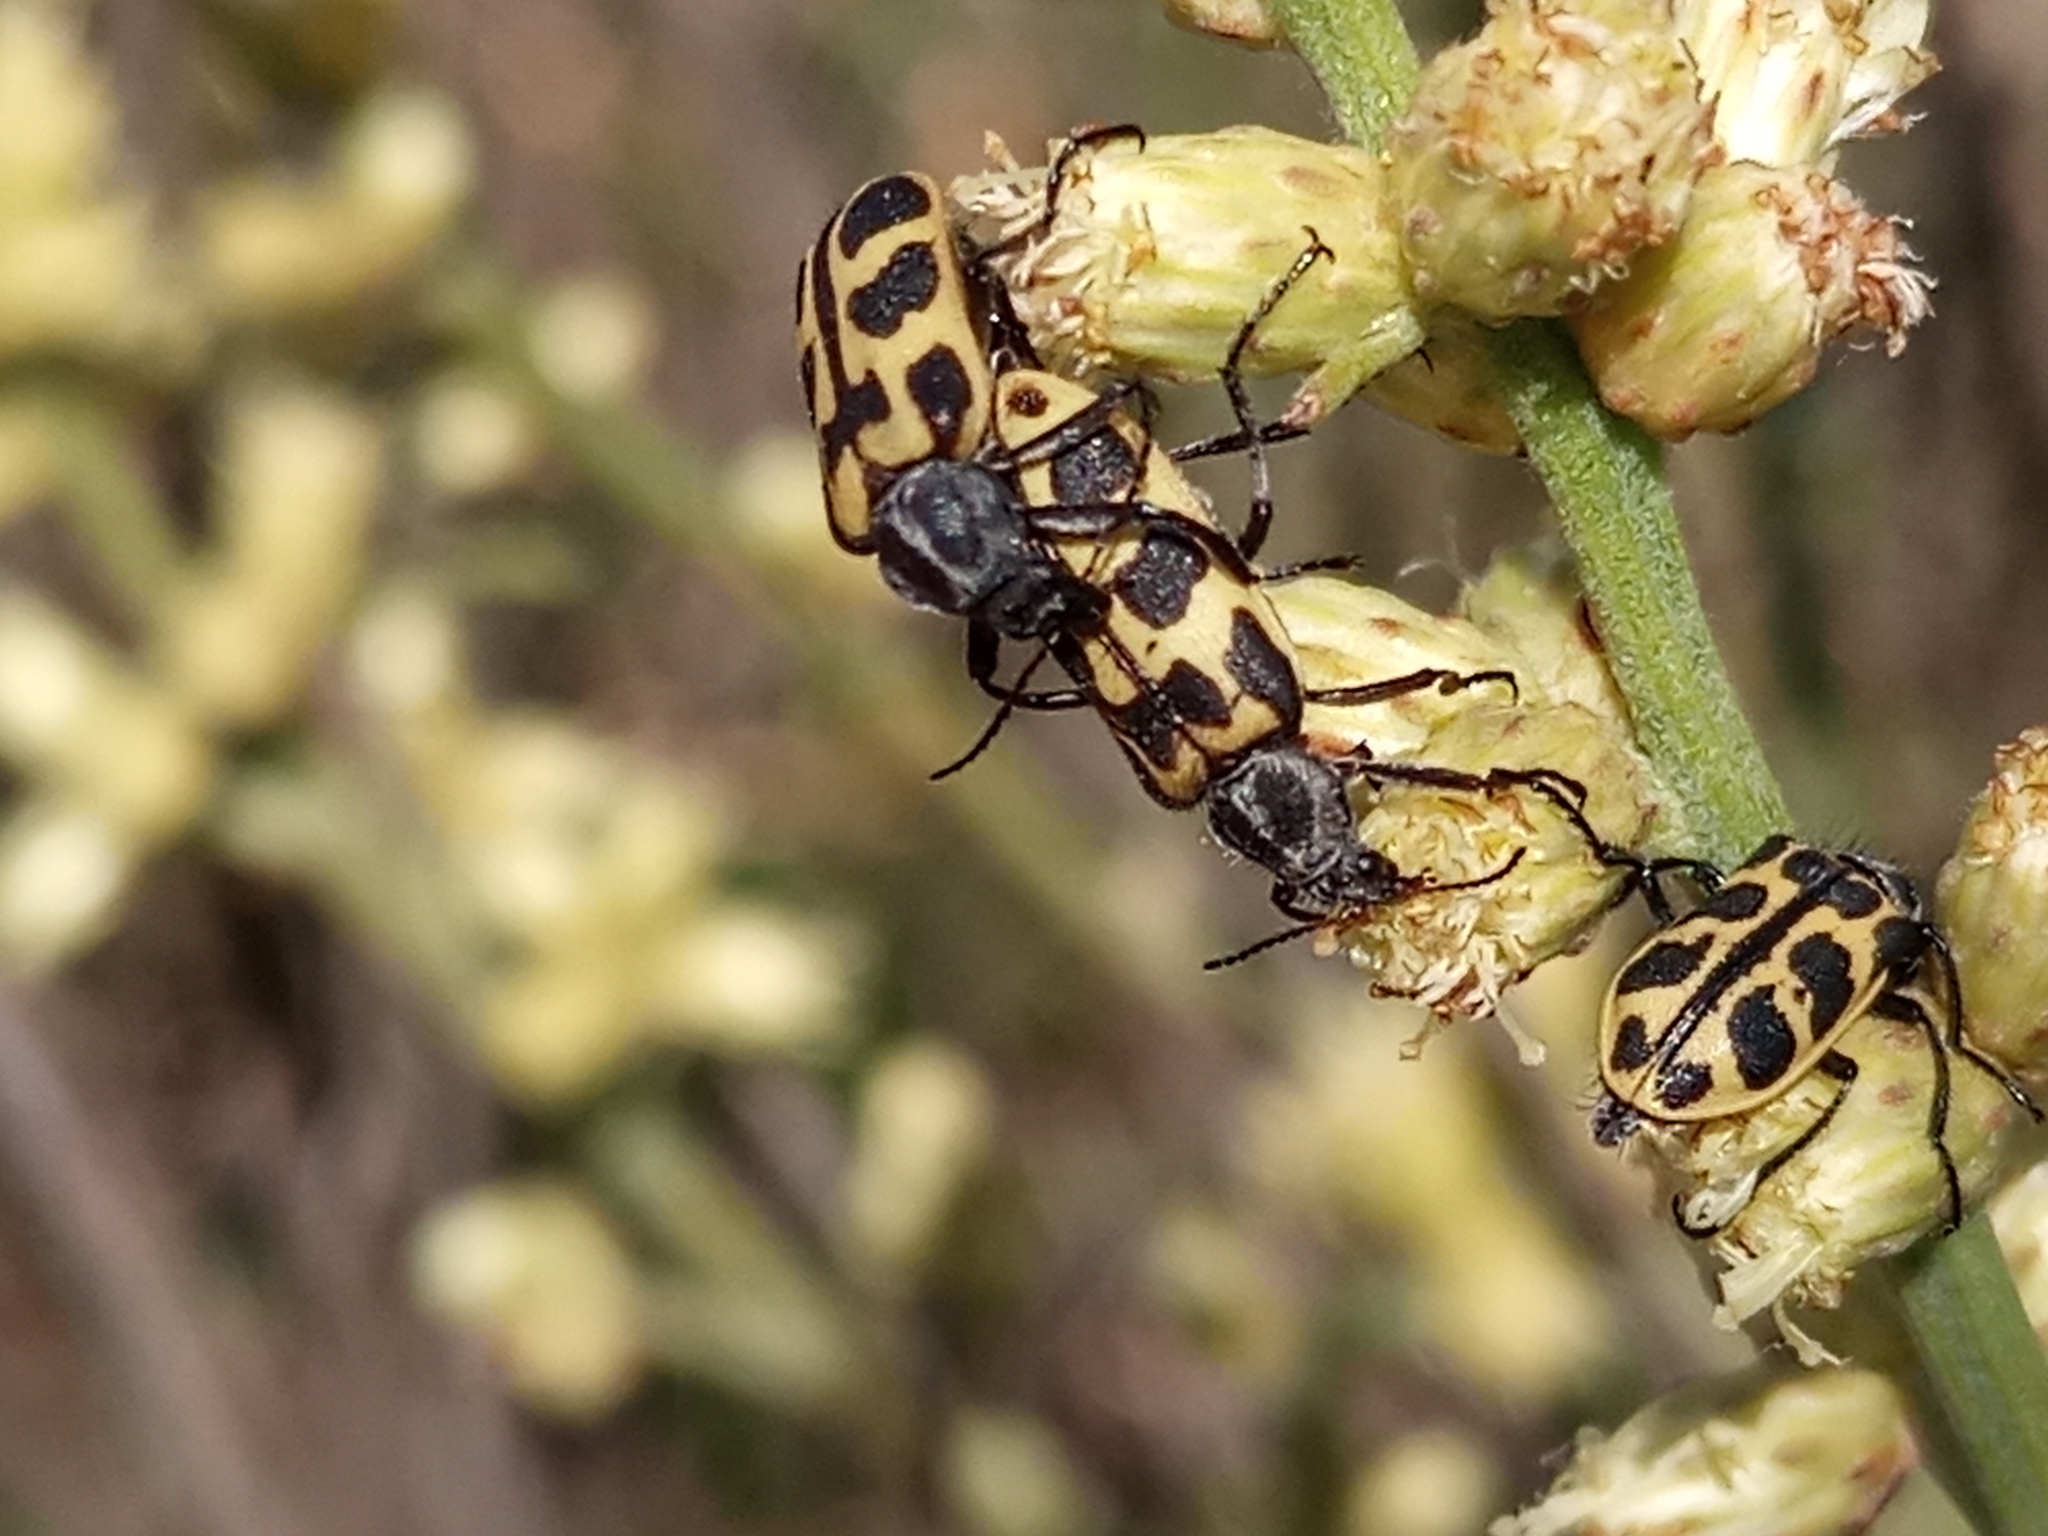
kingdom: Animalia
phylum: Arthropoda
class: Insecta
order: Coleoptera
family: Melyridae
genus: Astylus
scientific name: Astylus atromaculatus
